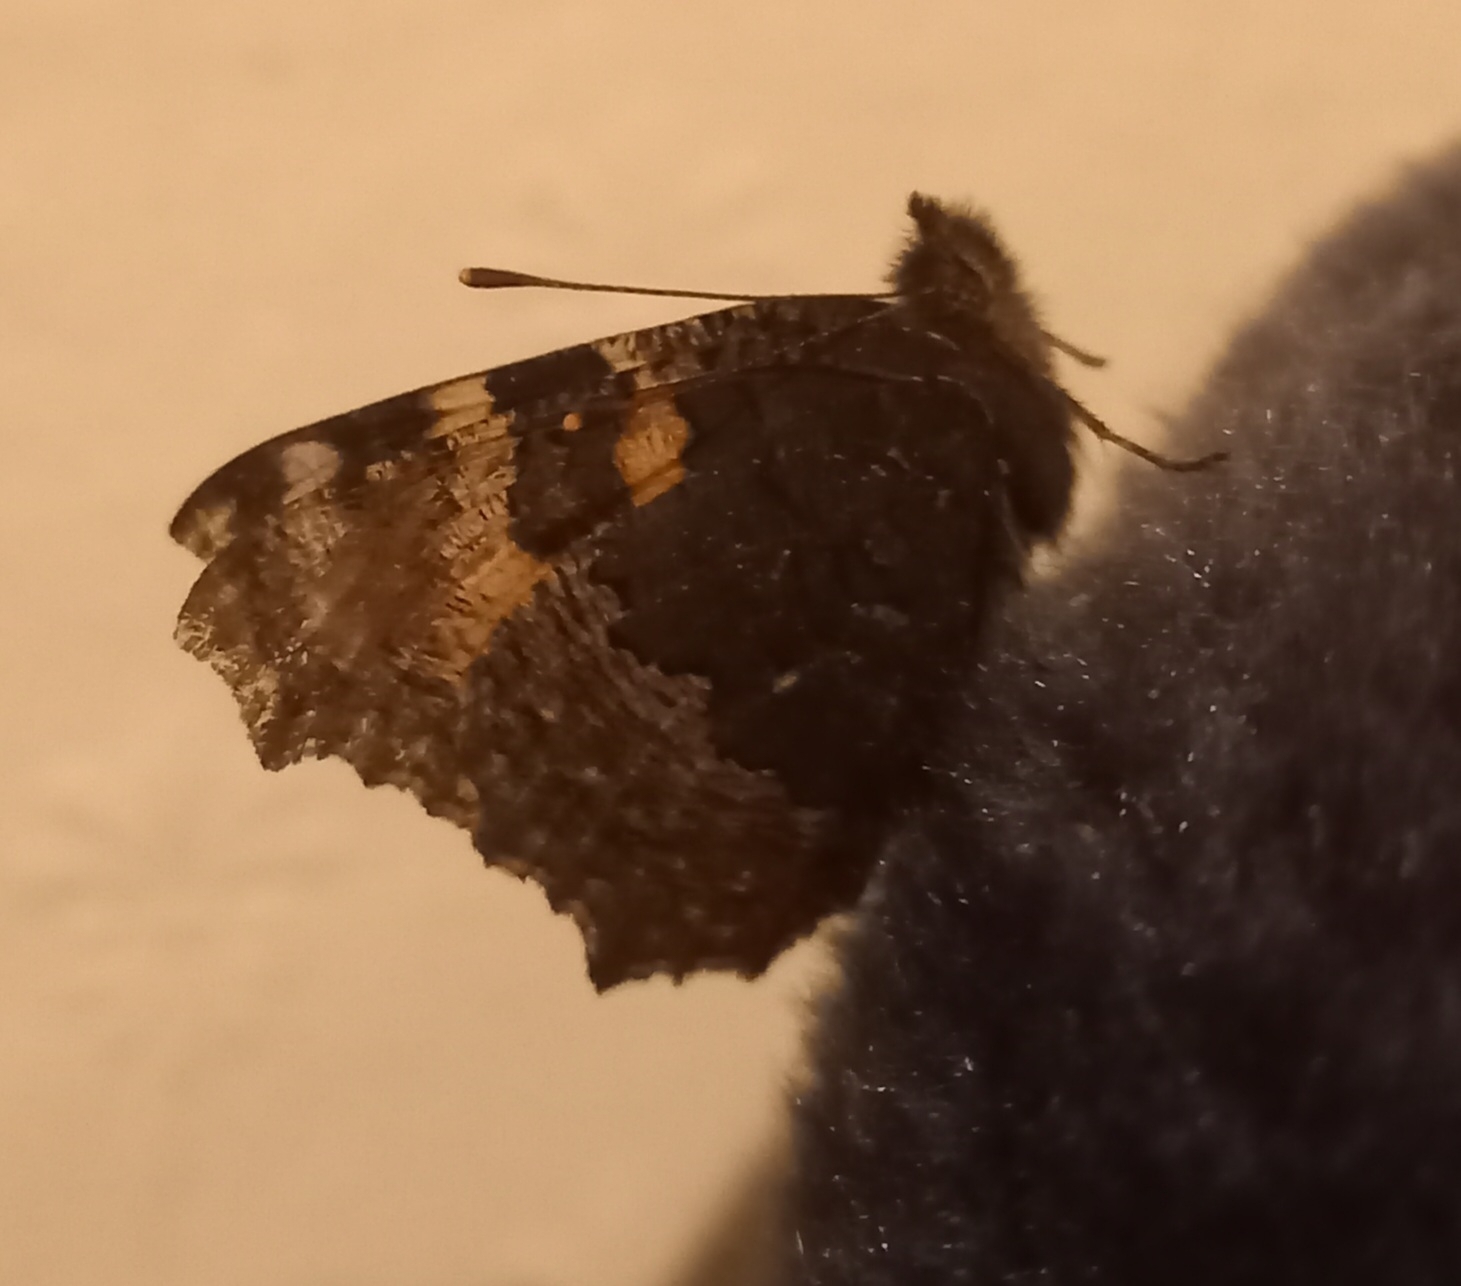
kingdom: Animalia
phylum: Arthropoda
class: Insecta
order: Lepidoptera
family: Nymphalidae
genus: Aglais
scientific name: Aglais urticae
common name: Small tortoiseshell
